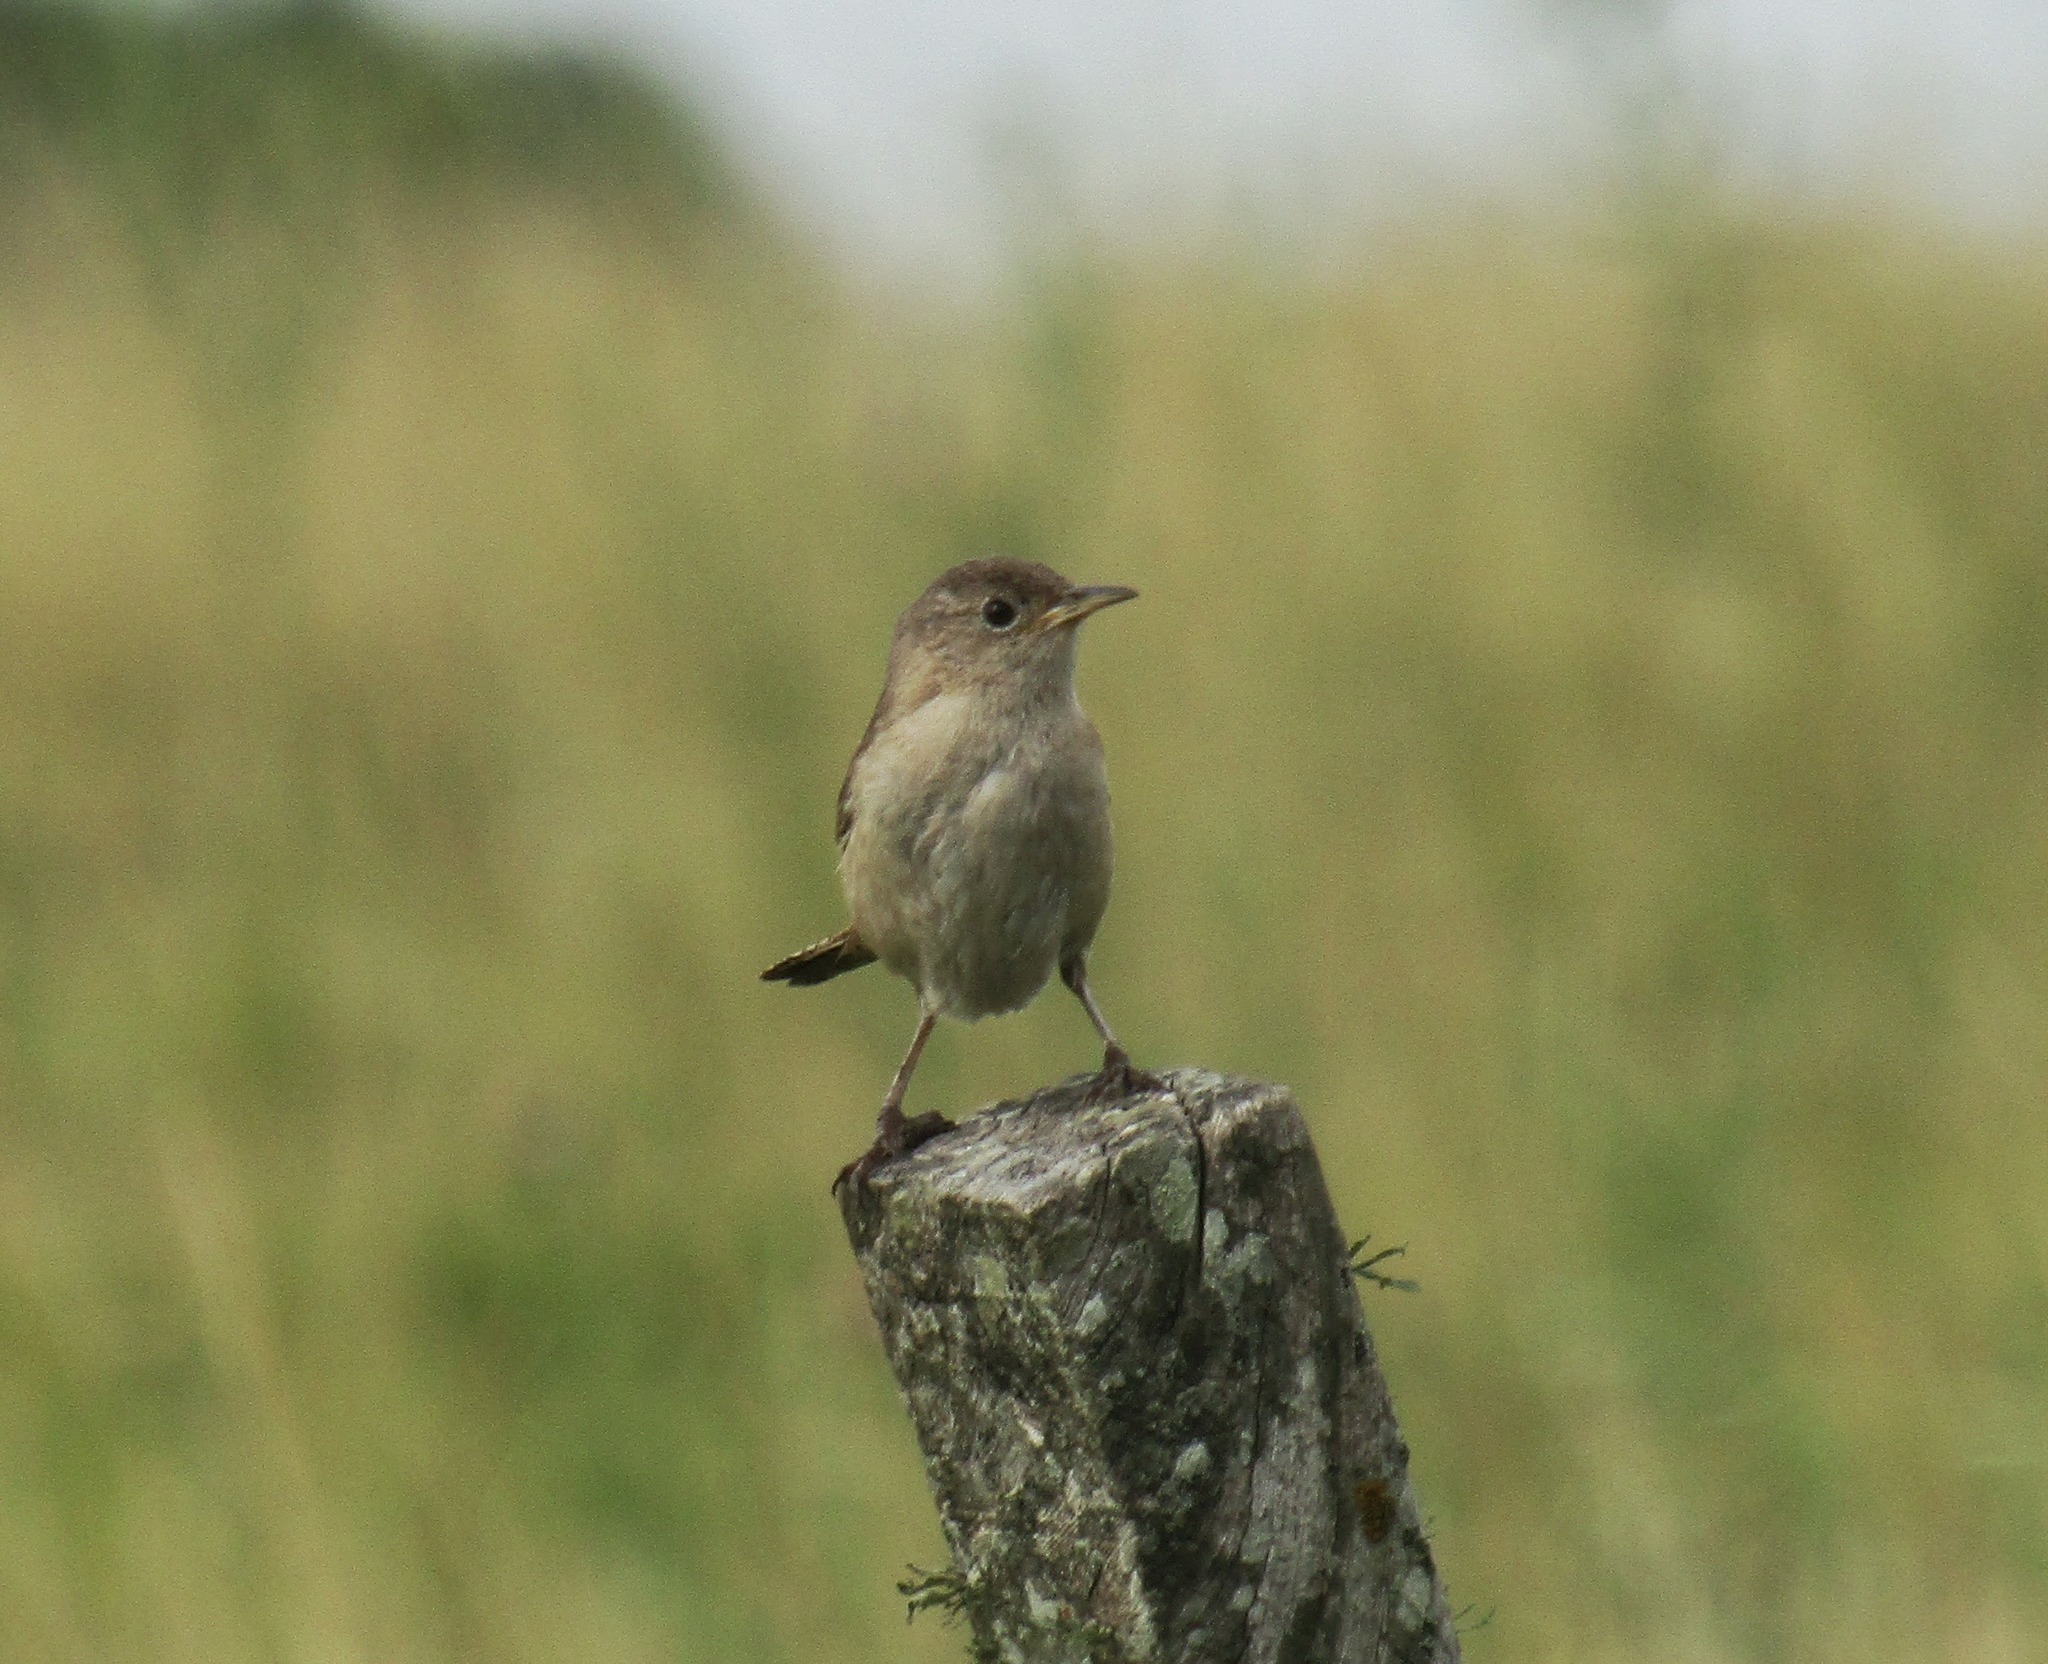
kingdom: Animalia
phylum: Chordata
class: Aves
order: Passeriformes
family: Troglodytidae
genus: Troglodytes
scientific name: Troglodytes aedon
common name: House wren
